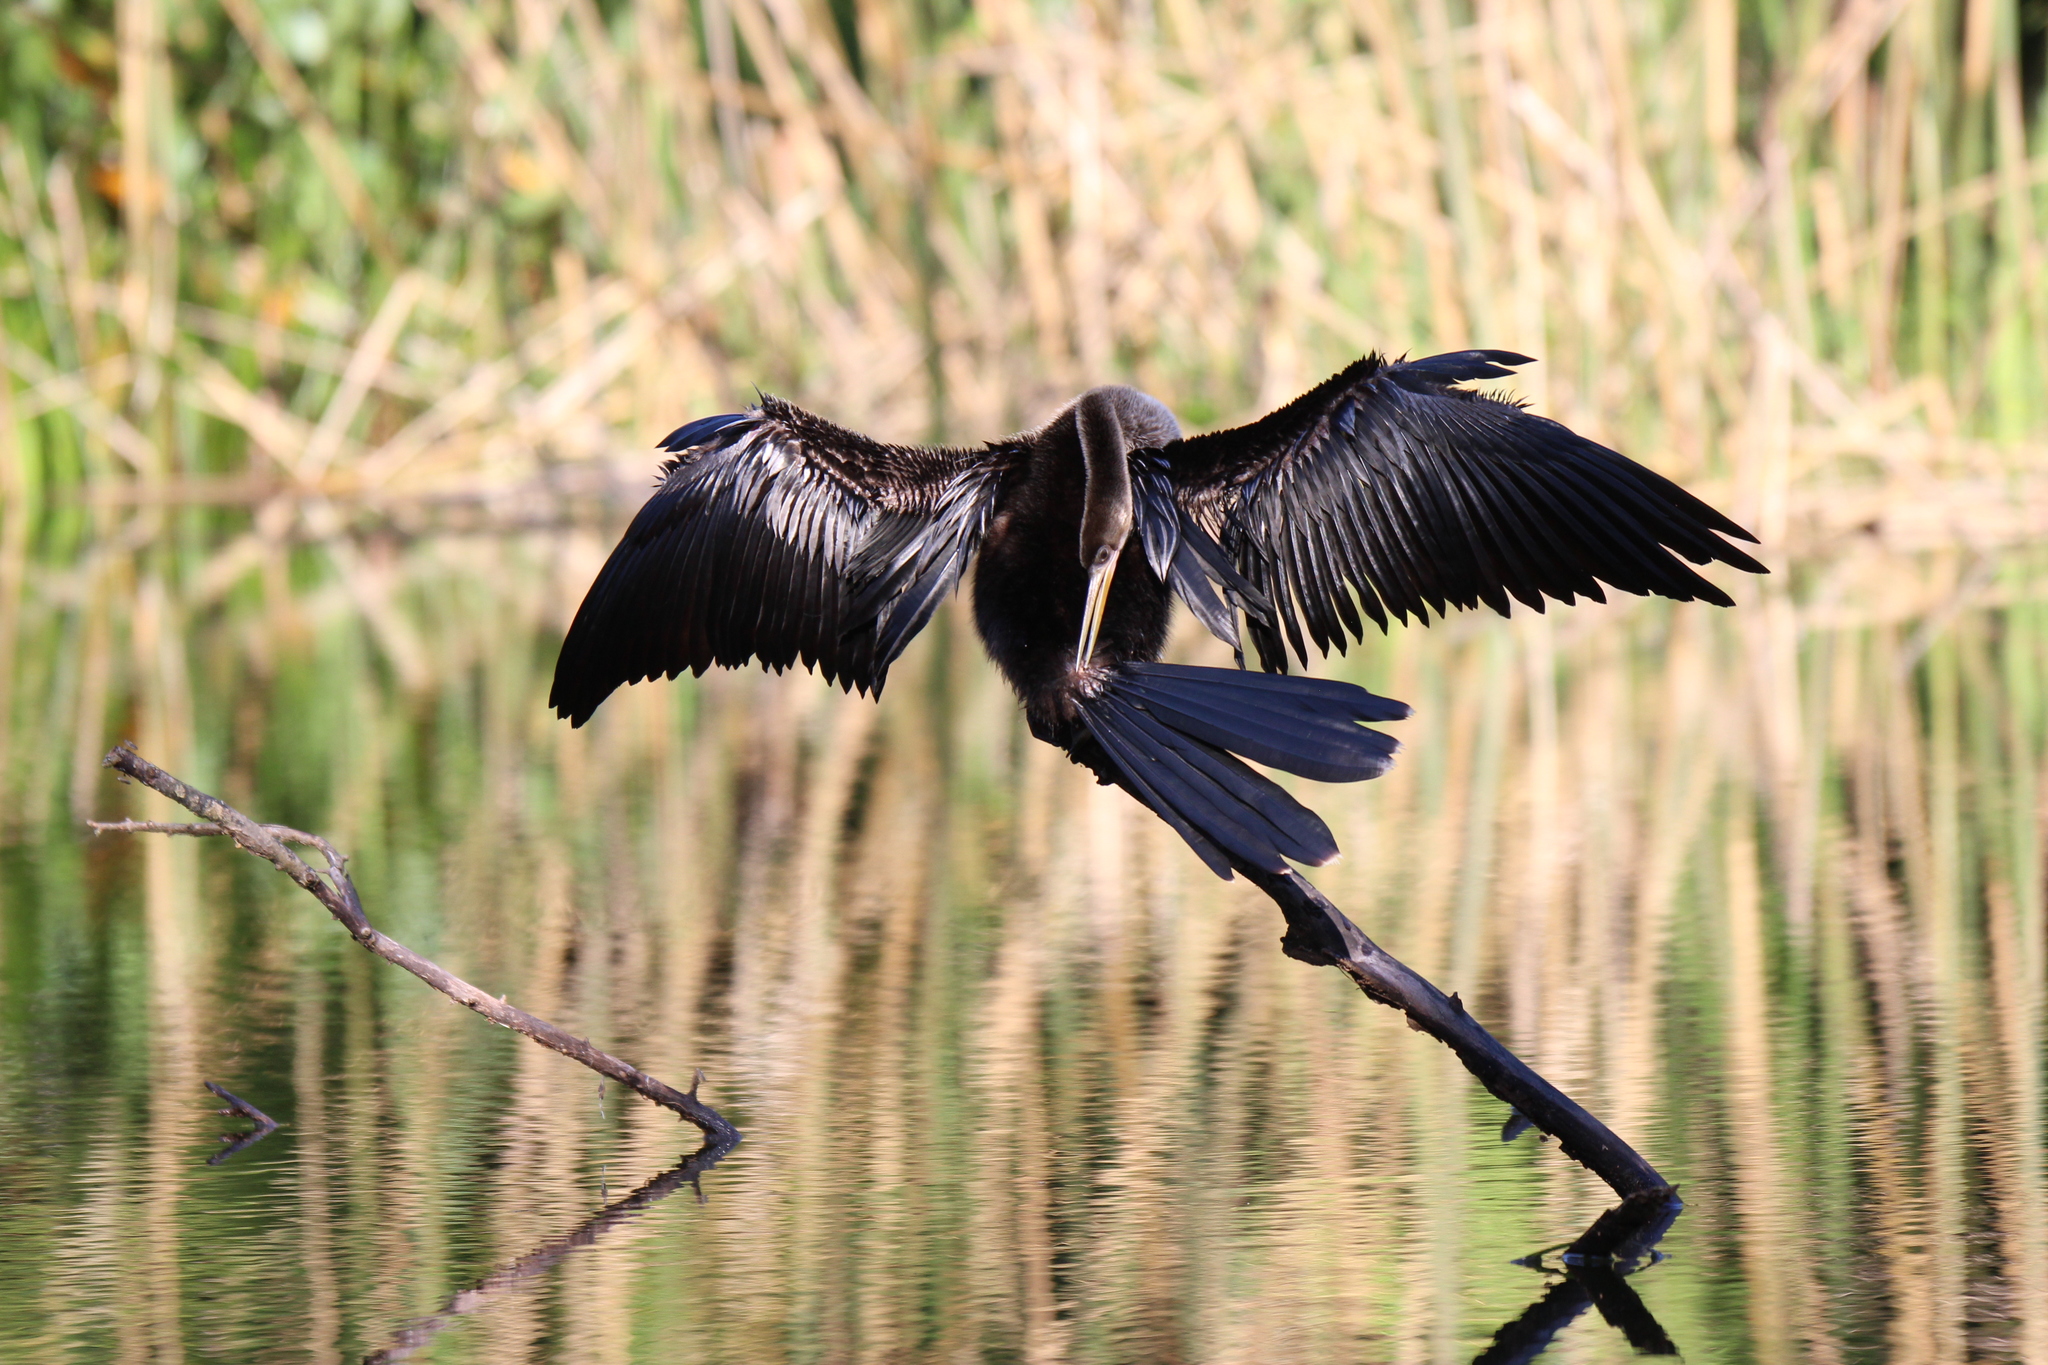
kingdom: Animalia
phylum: Chordata
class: Aves
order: Suliformes
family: Anhingidae
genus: Anhinga
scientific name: Anhinga anhinga
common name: Anhinga
